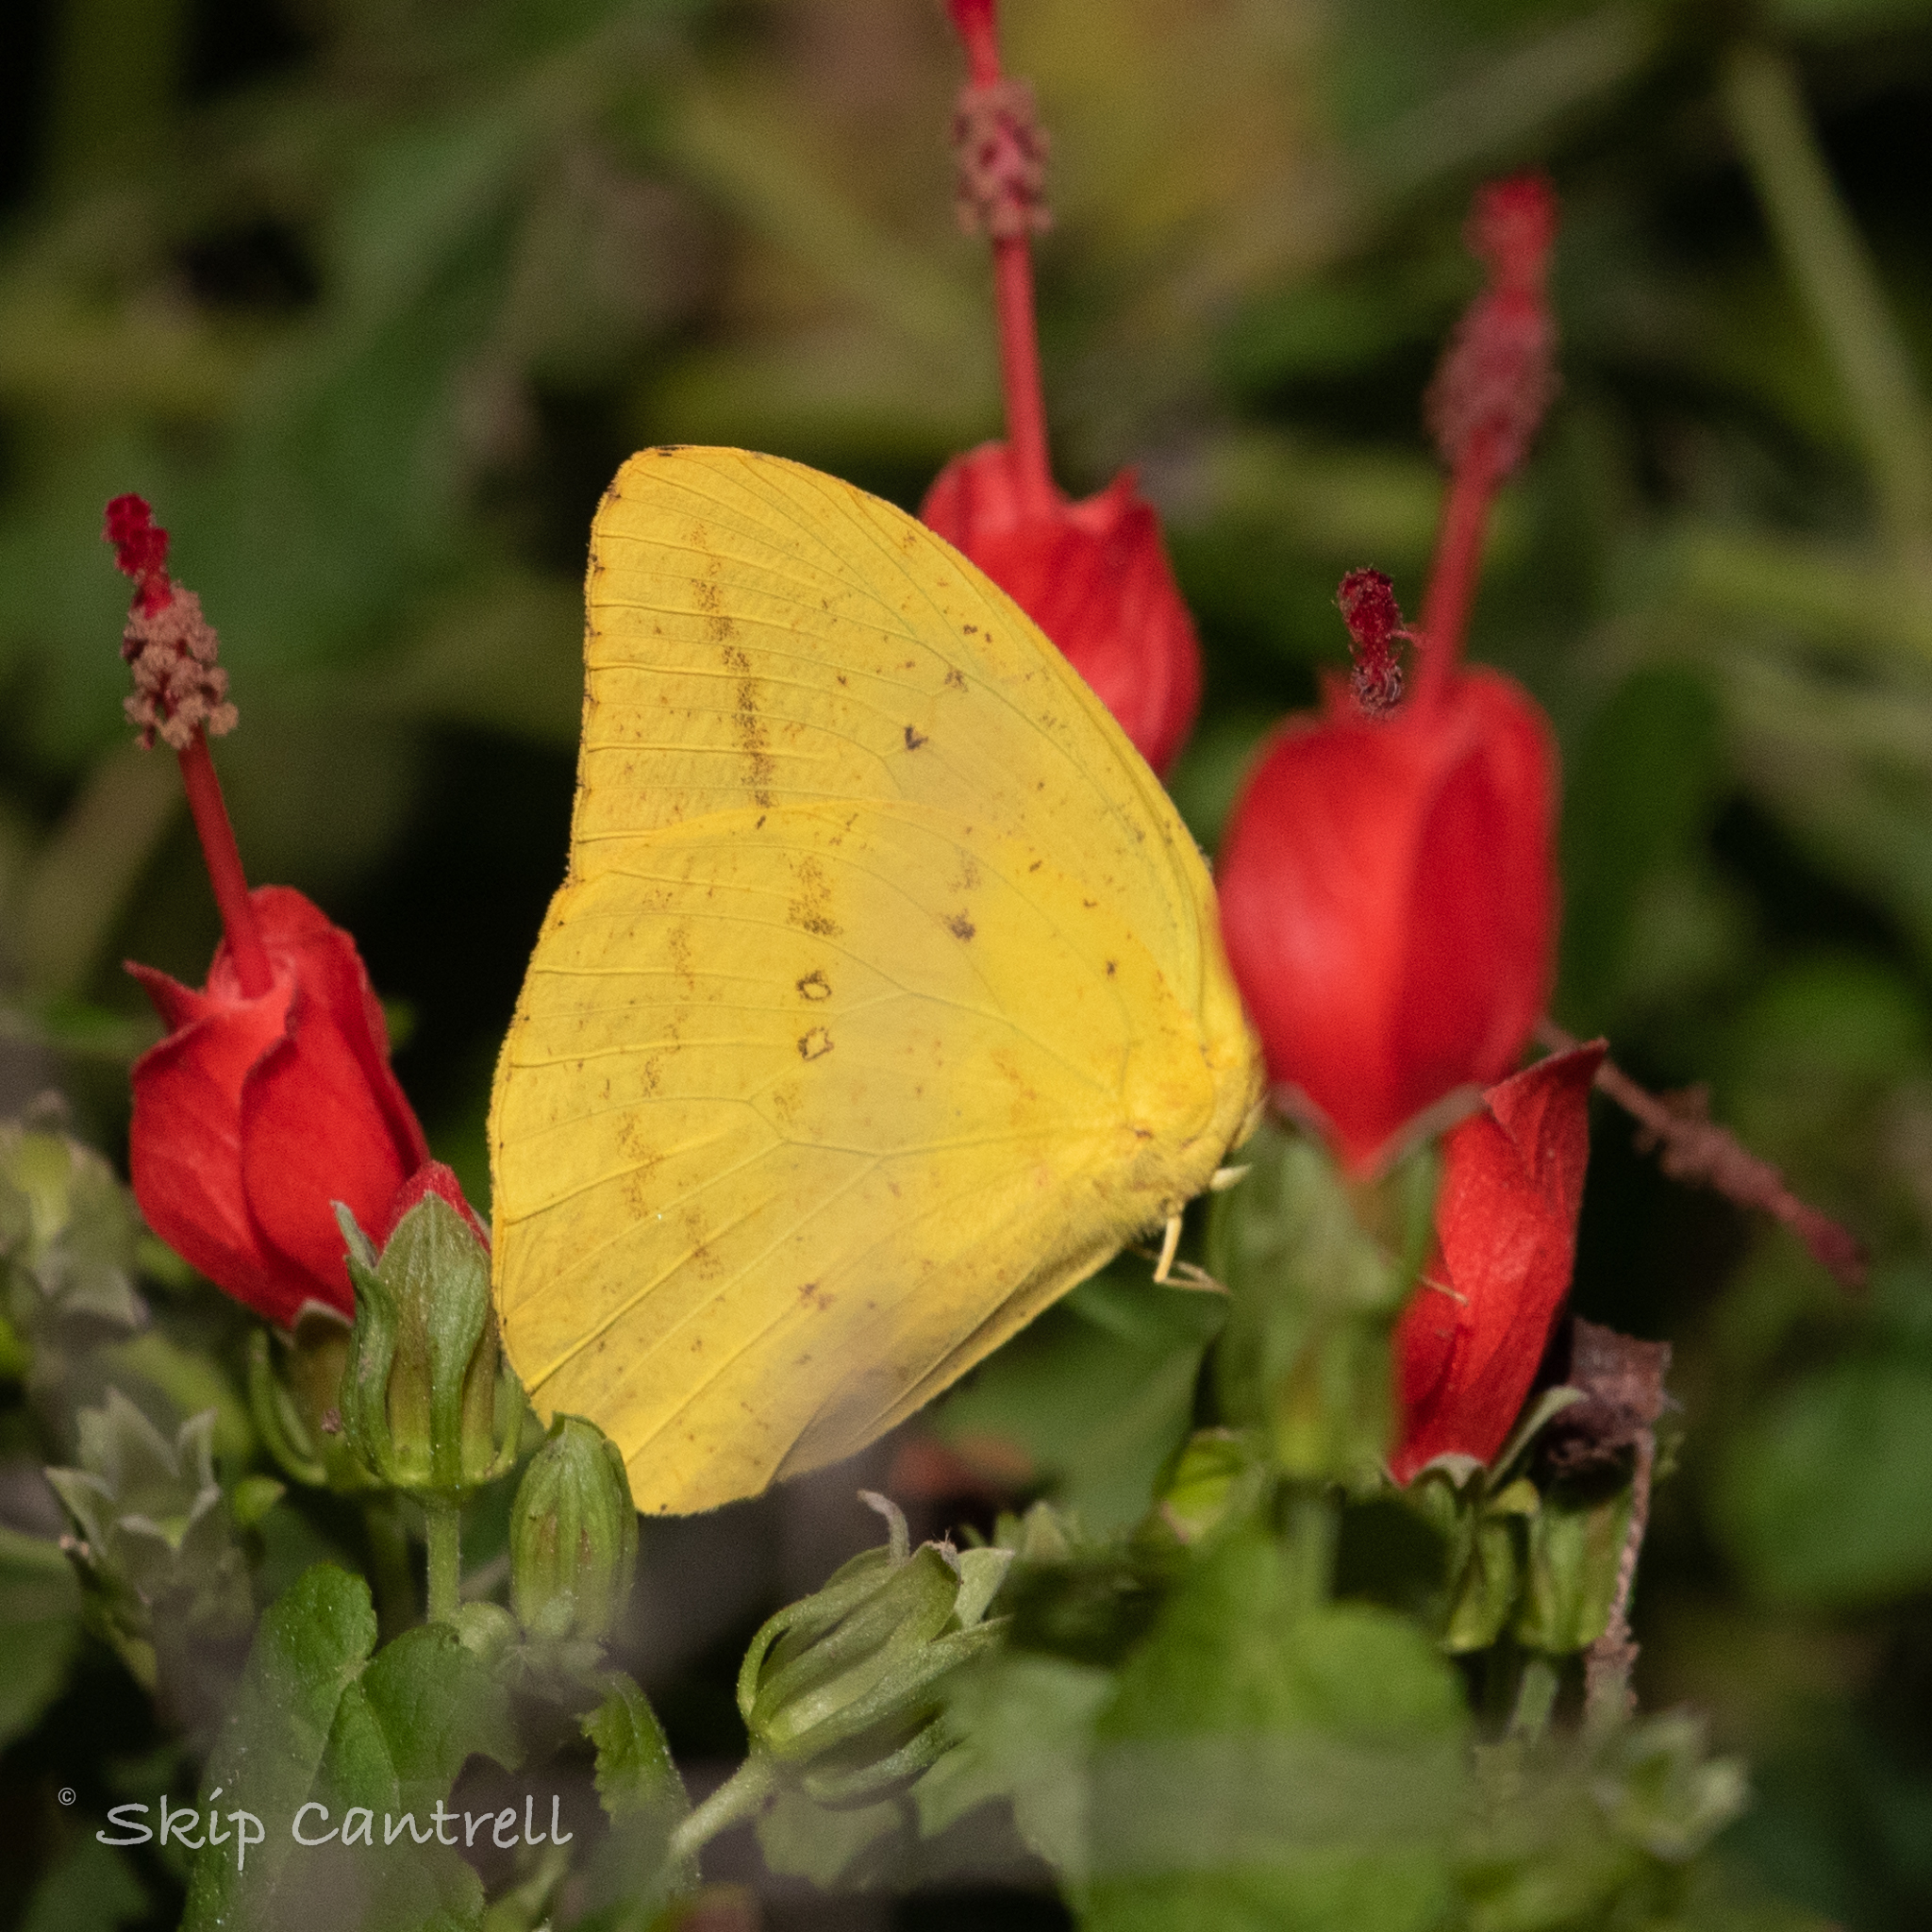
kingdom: Animalia
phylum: Arthropoda
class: Insecta
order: Lepidoptera
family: Pieridae
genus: Phoebis
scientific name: Phoebis agarithe
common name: Large orange sulphur
